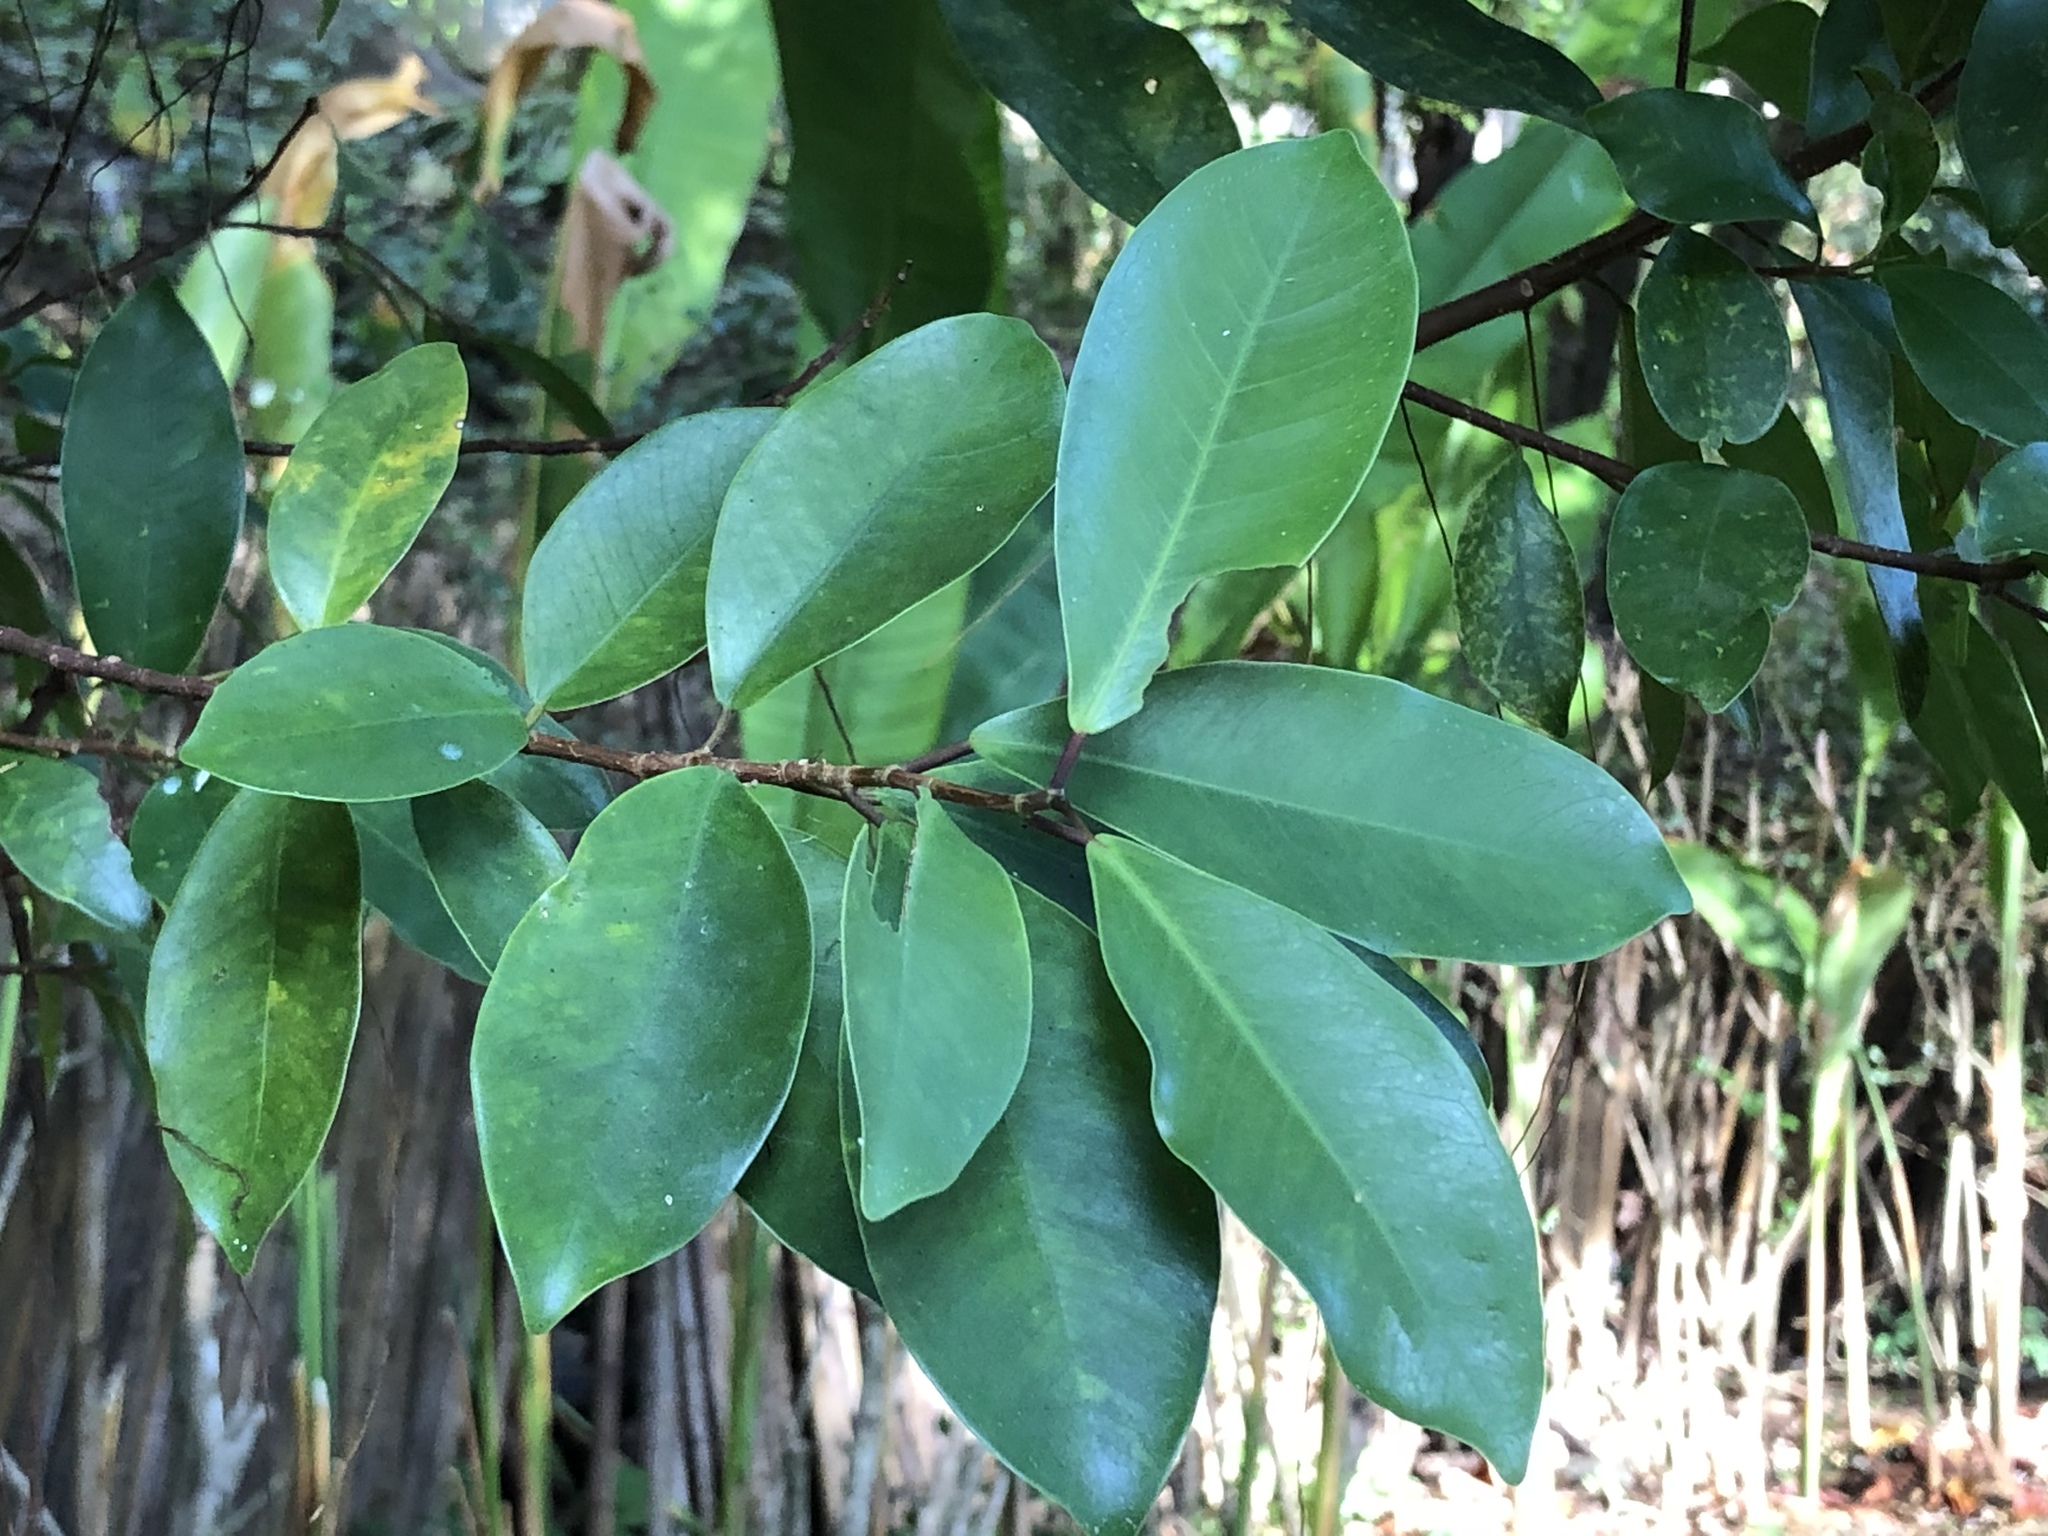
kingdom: Plantae
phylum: Tracheophyta
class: Magnoliopsida
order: Rosales
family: Moraceae
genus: Ficus
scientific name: Ficus microcarpa
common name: Chinese banyan
